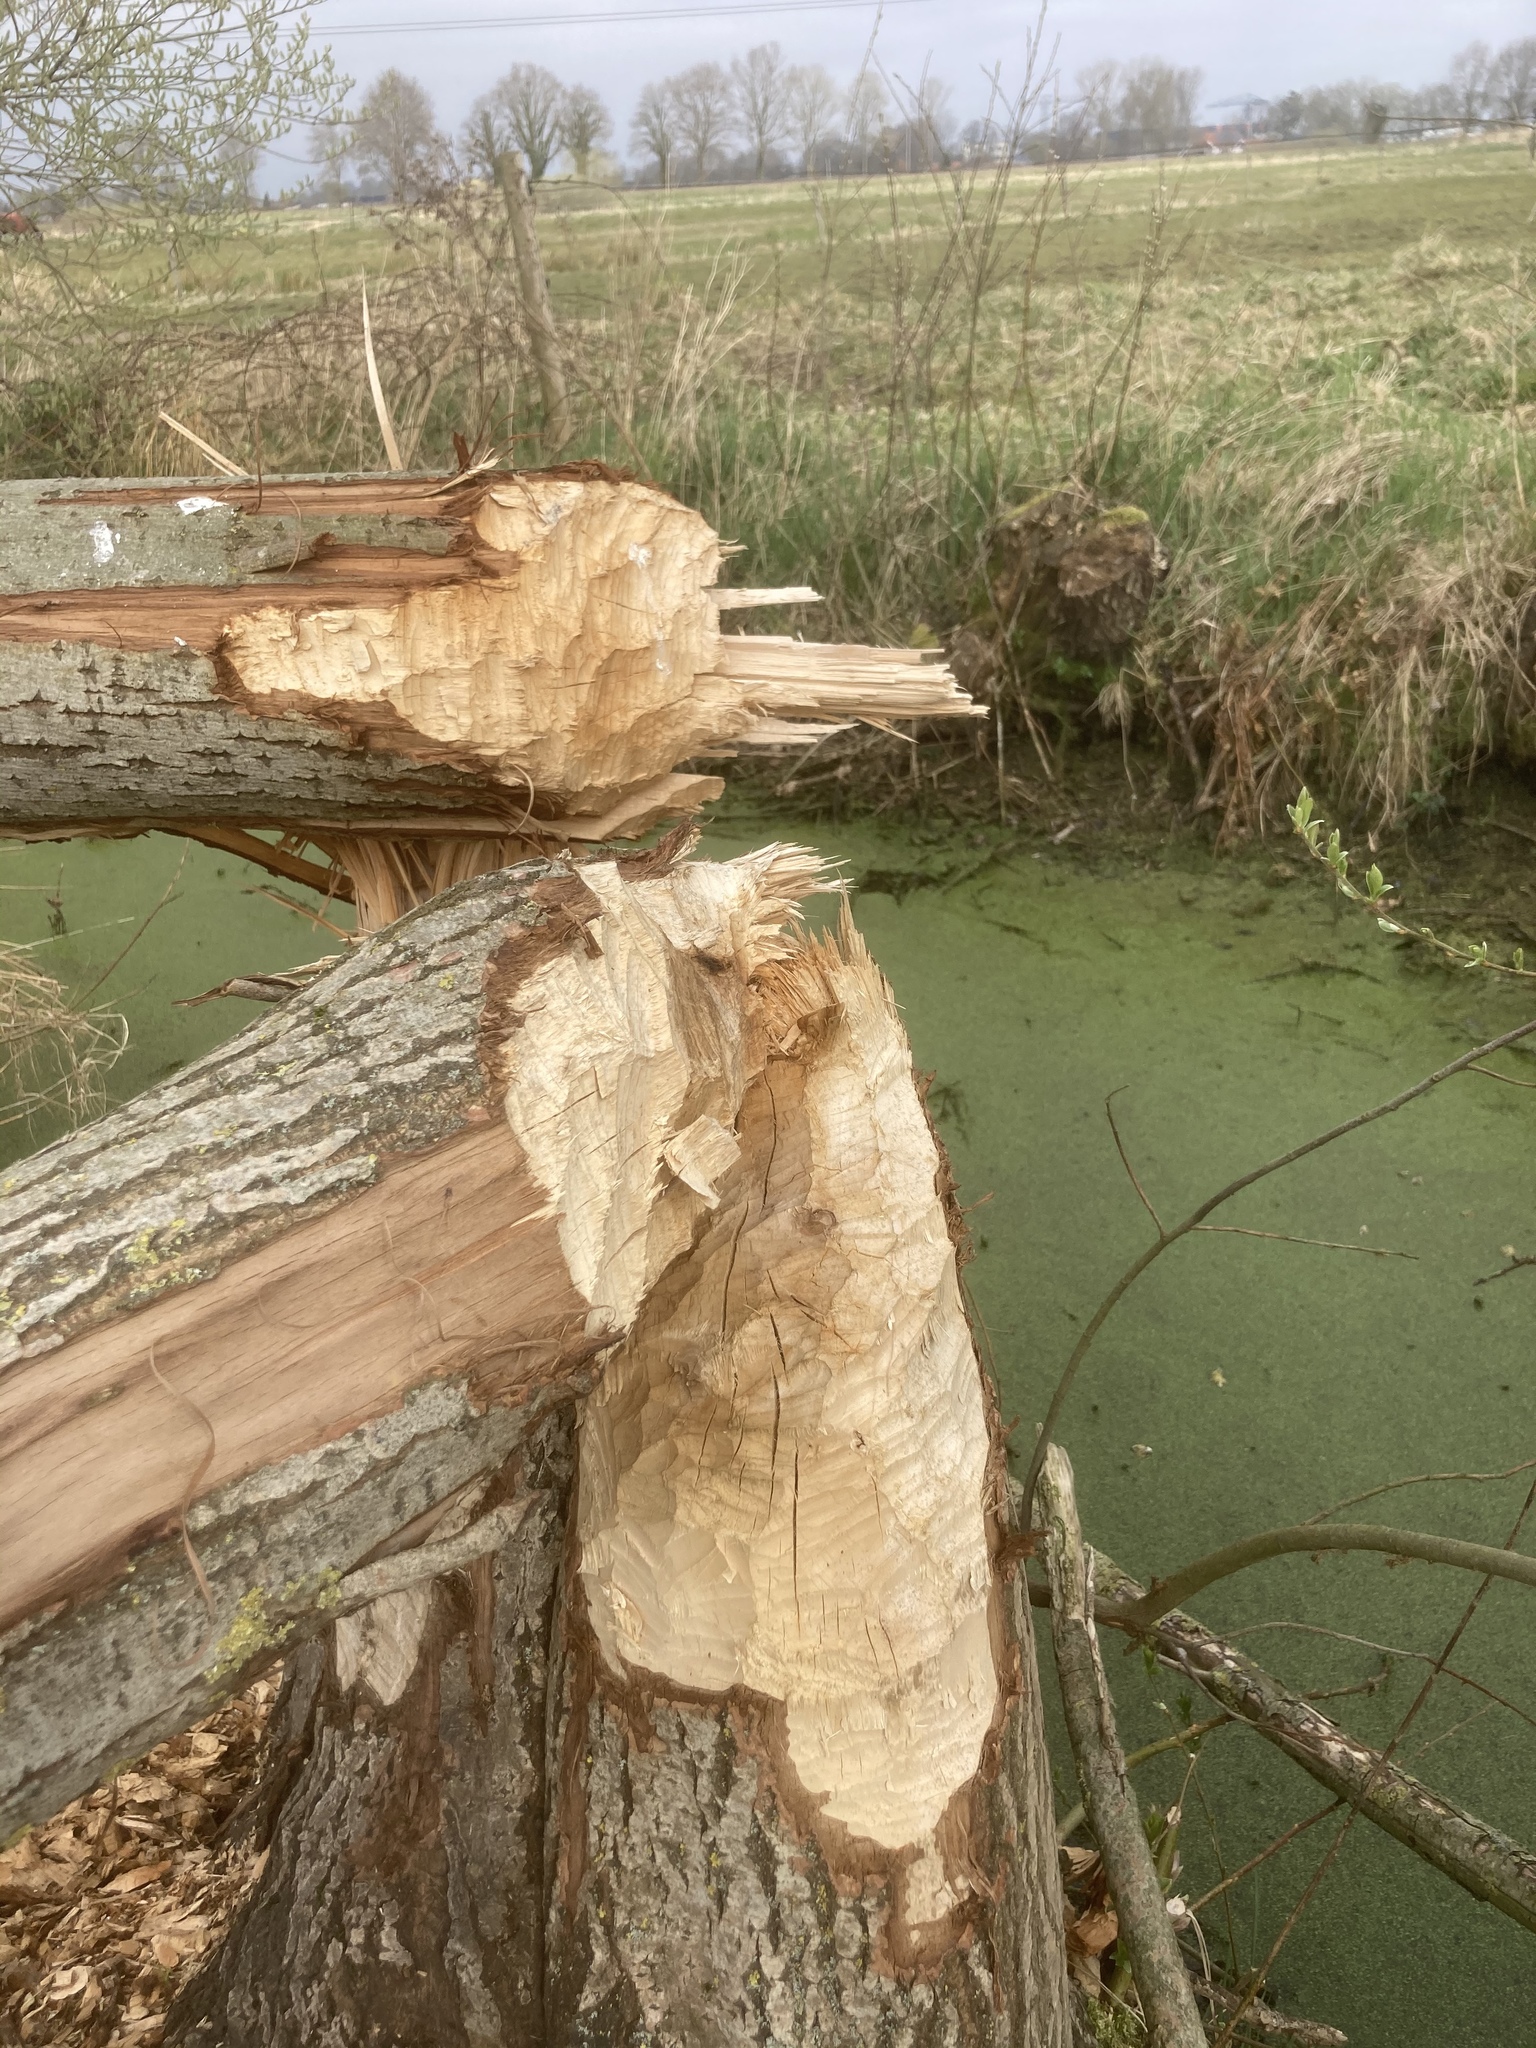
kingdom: Animalia
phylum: Chordata
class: Mammalia
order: Rodentia
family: Castoridae
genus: Castor
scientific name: Castor fiber
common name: Eurasian beaver
